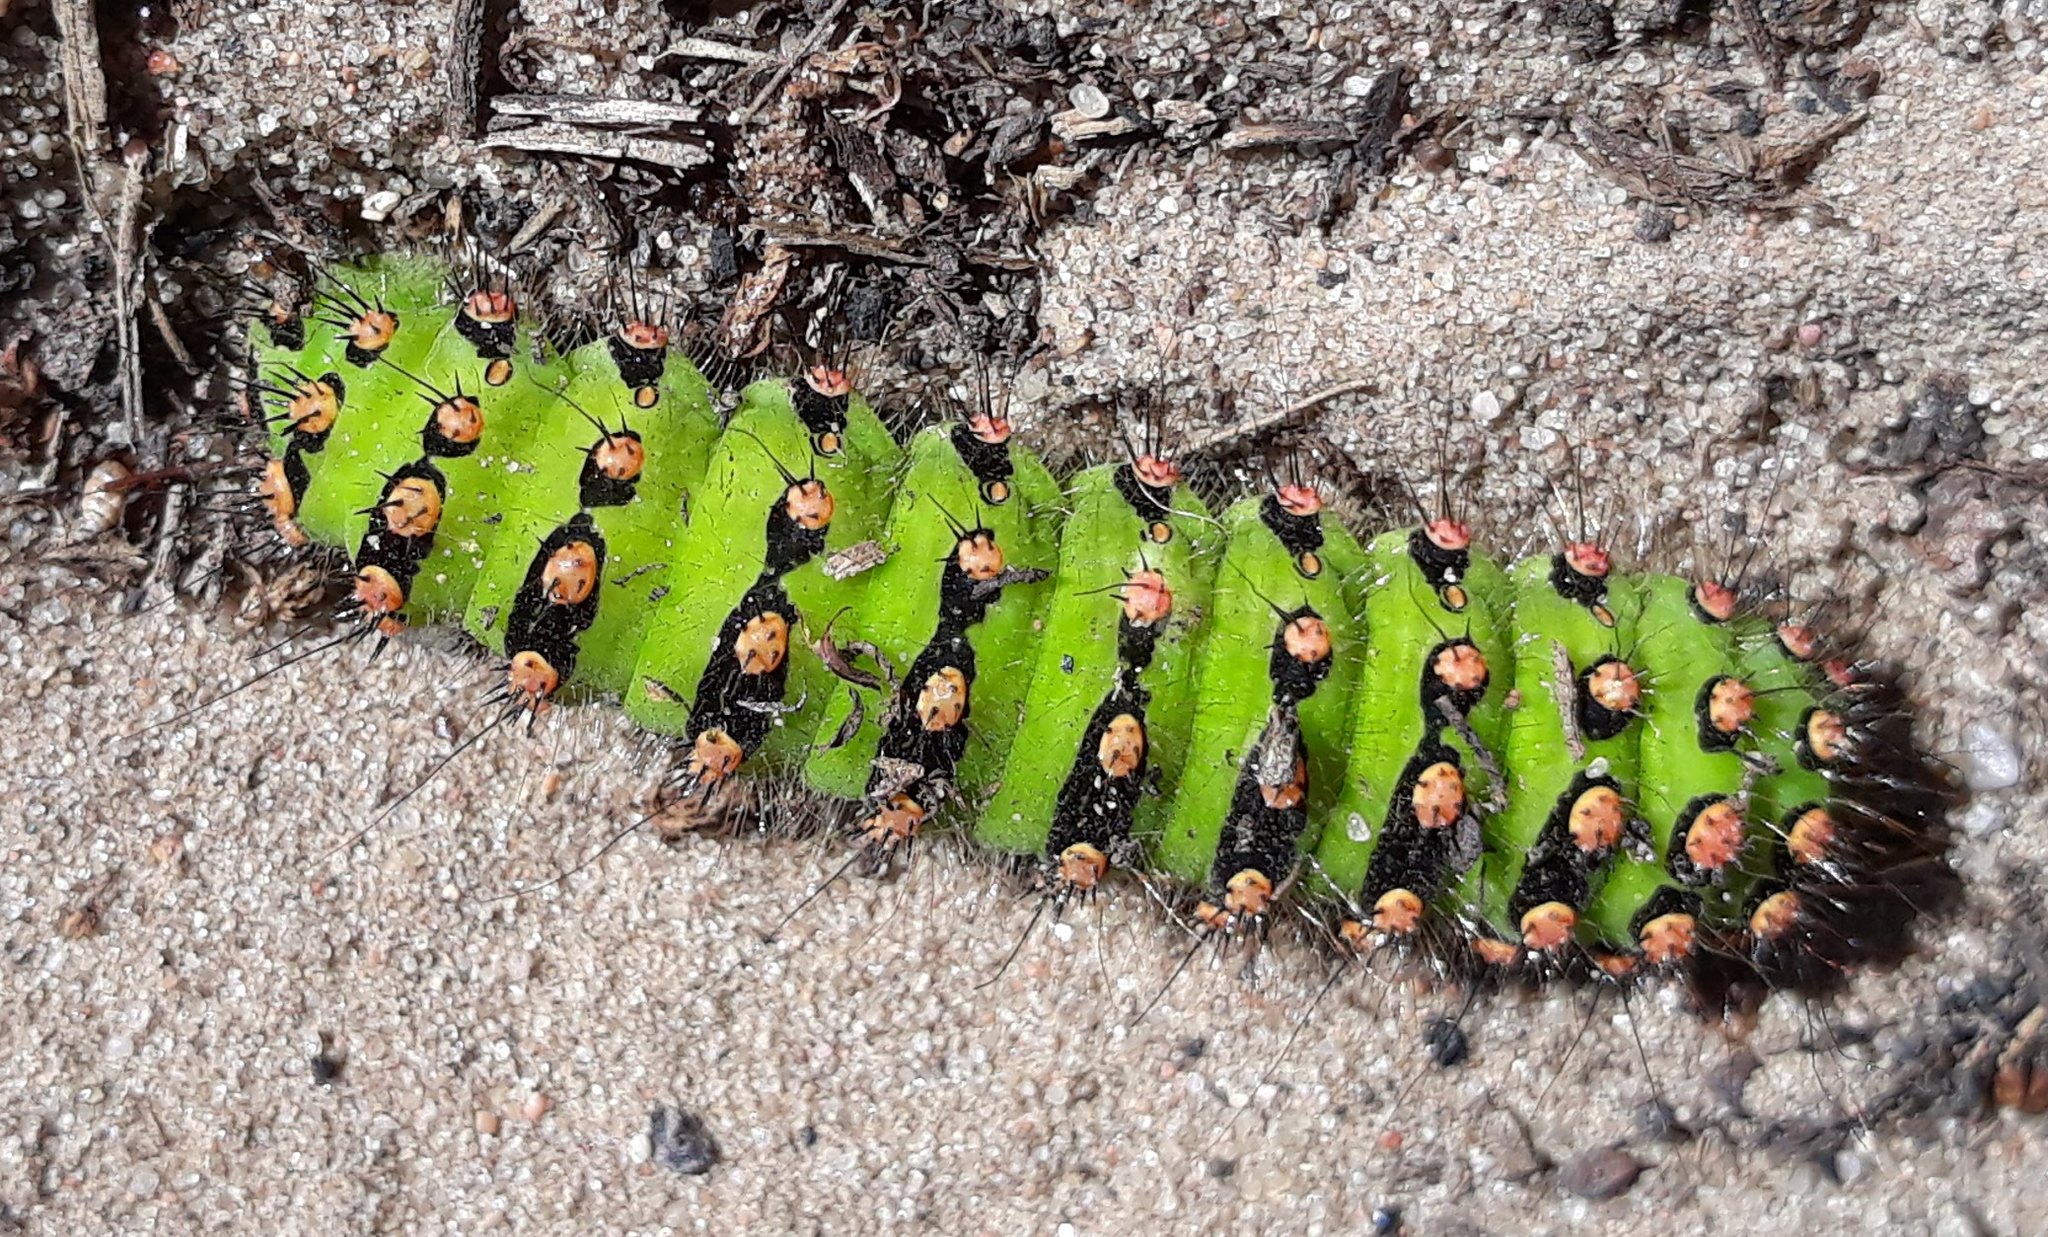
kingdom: Animalia
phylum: Arthropoda
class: Insecta
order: Lepidoptera
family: Saturniidae
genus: Saturnia
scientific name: Saturnia pavonia
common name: Emperor moth
